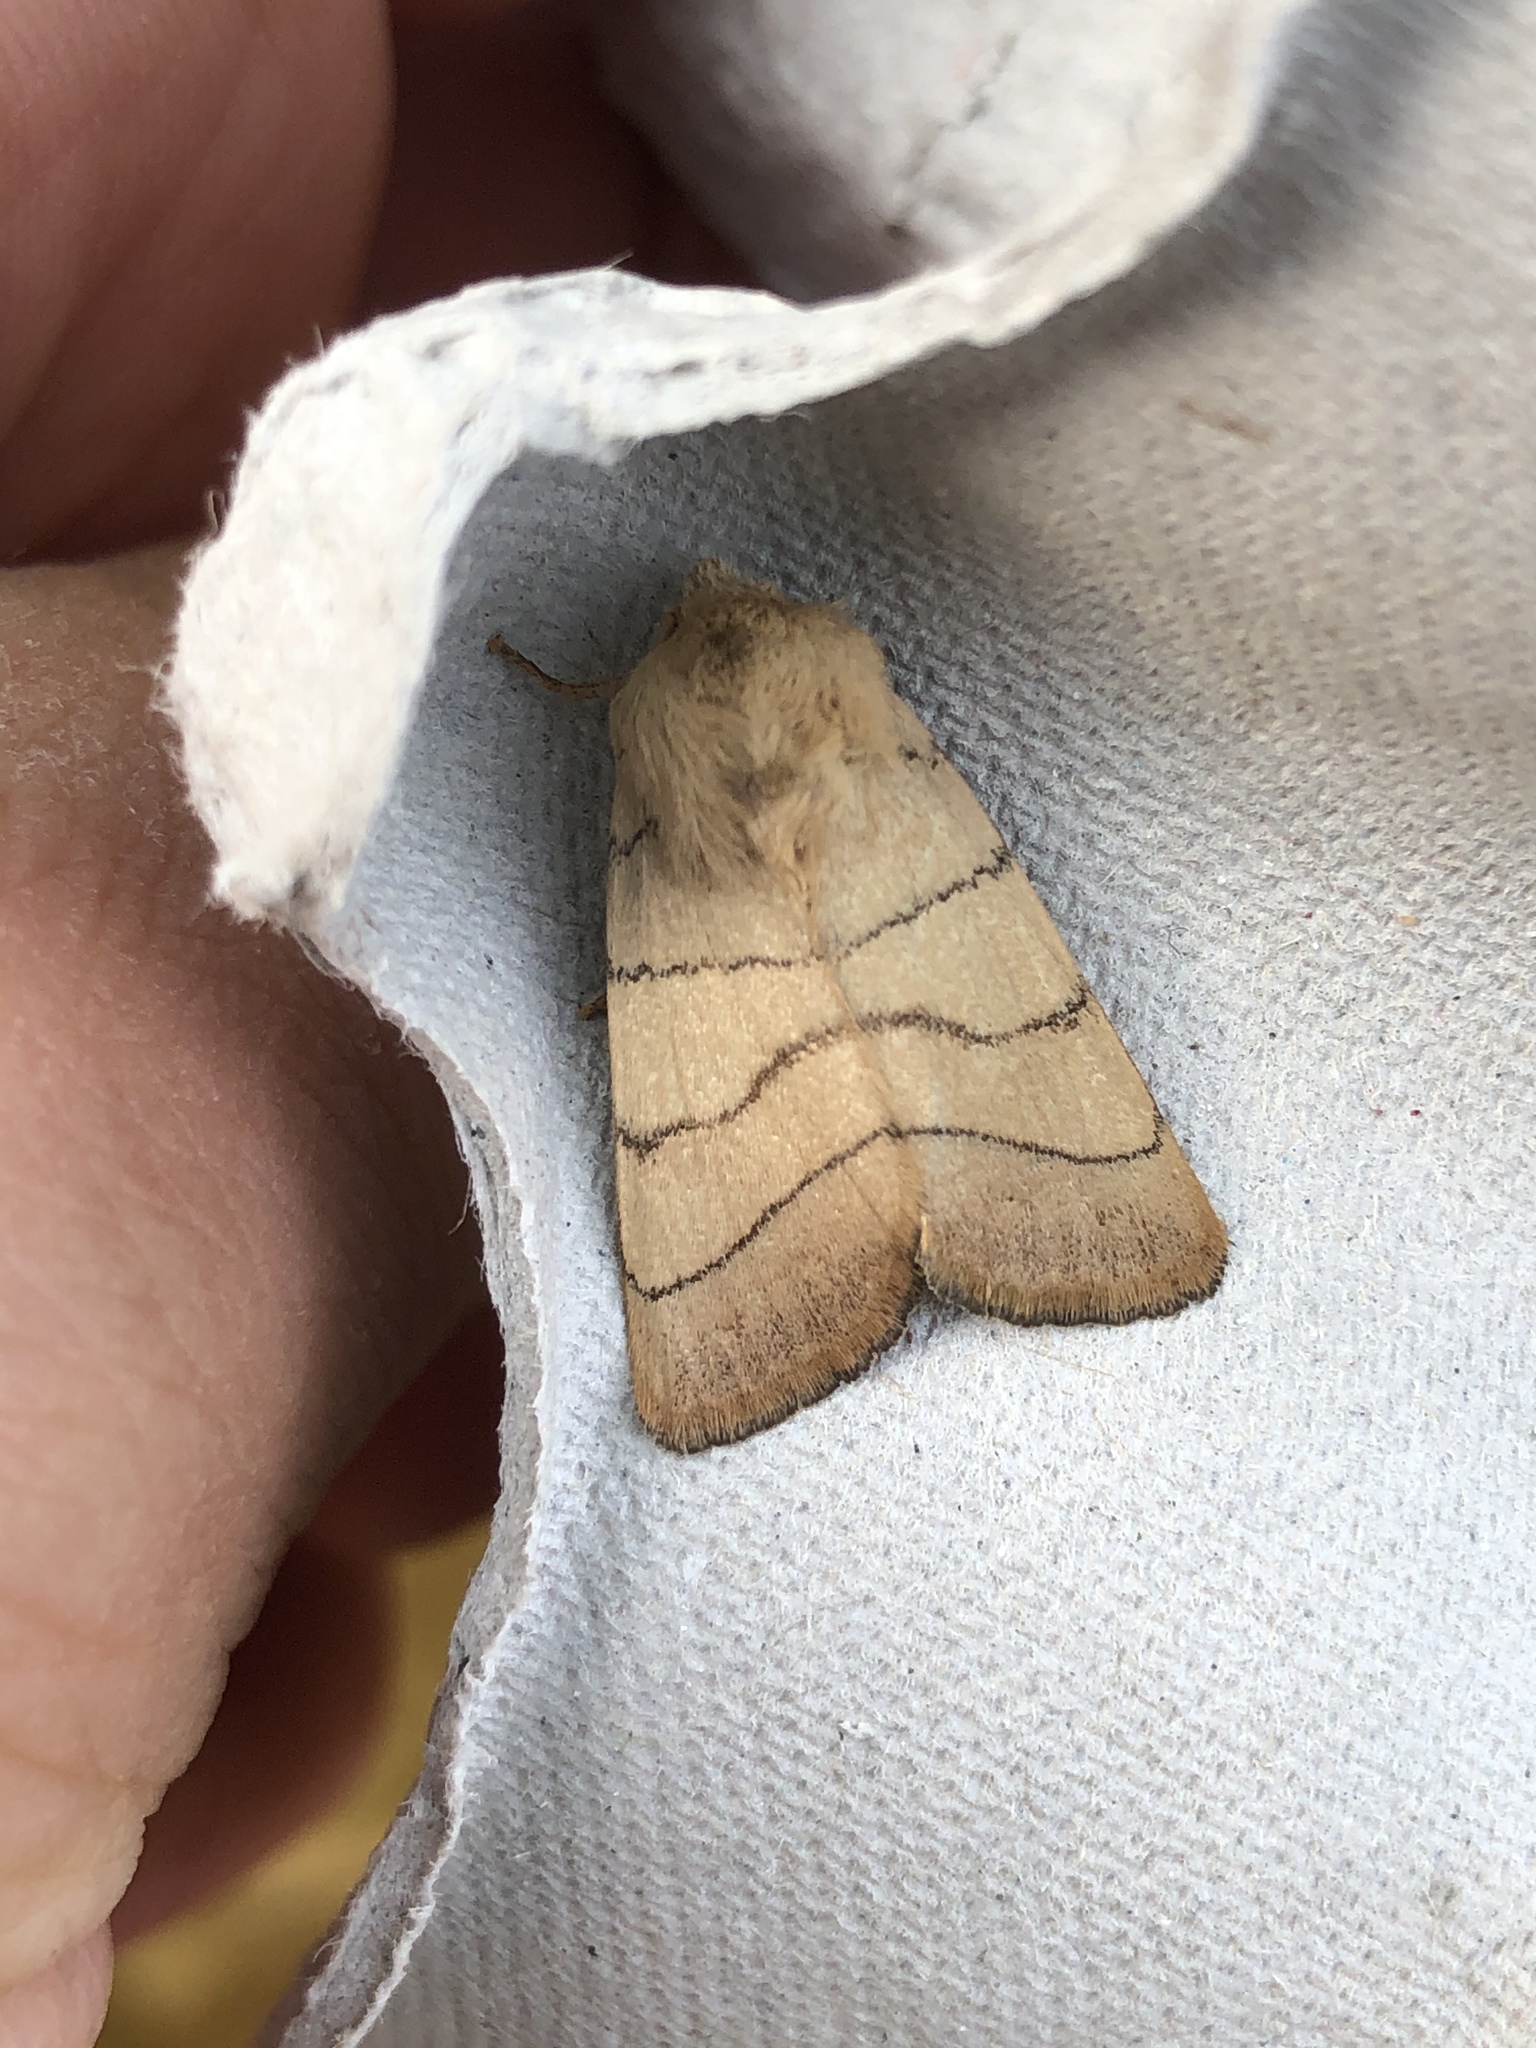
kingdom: Animalia
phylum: Arthropoda
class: Insecta
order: Lepidoptera
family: Noctuidae
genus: Charanyca
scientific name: Charanyca trigrammica
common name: Treble lines
